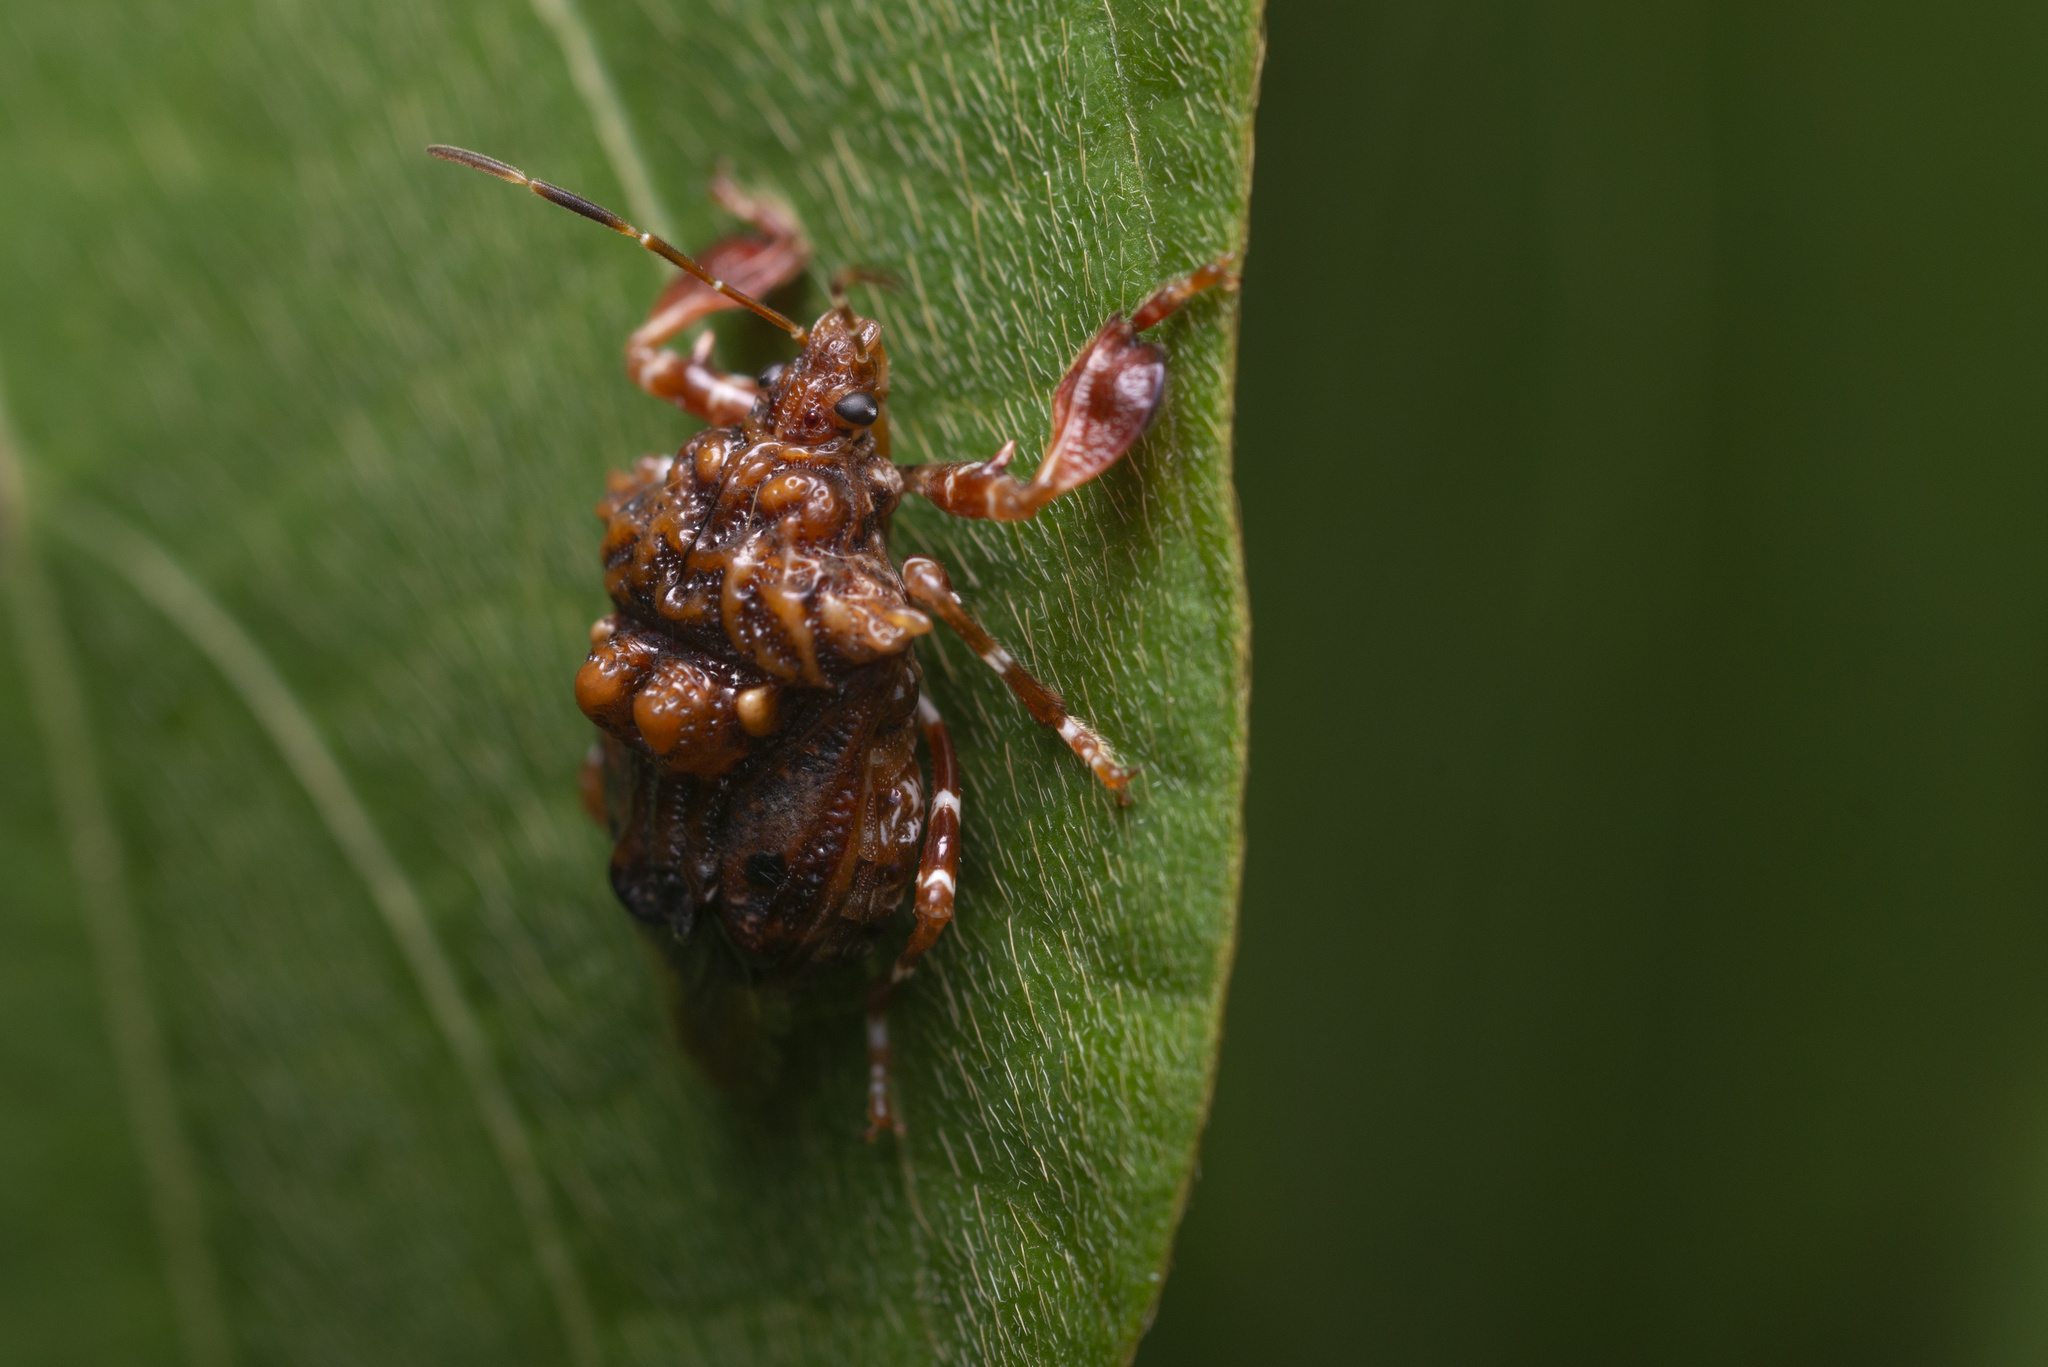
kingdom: Animalia
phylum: Arthropoda
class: Insecta
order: Hemiptera
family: Pentatomidae
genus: Cazira
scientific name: Cazira verrucosa
